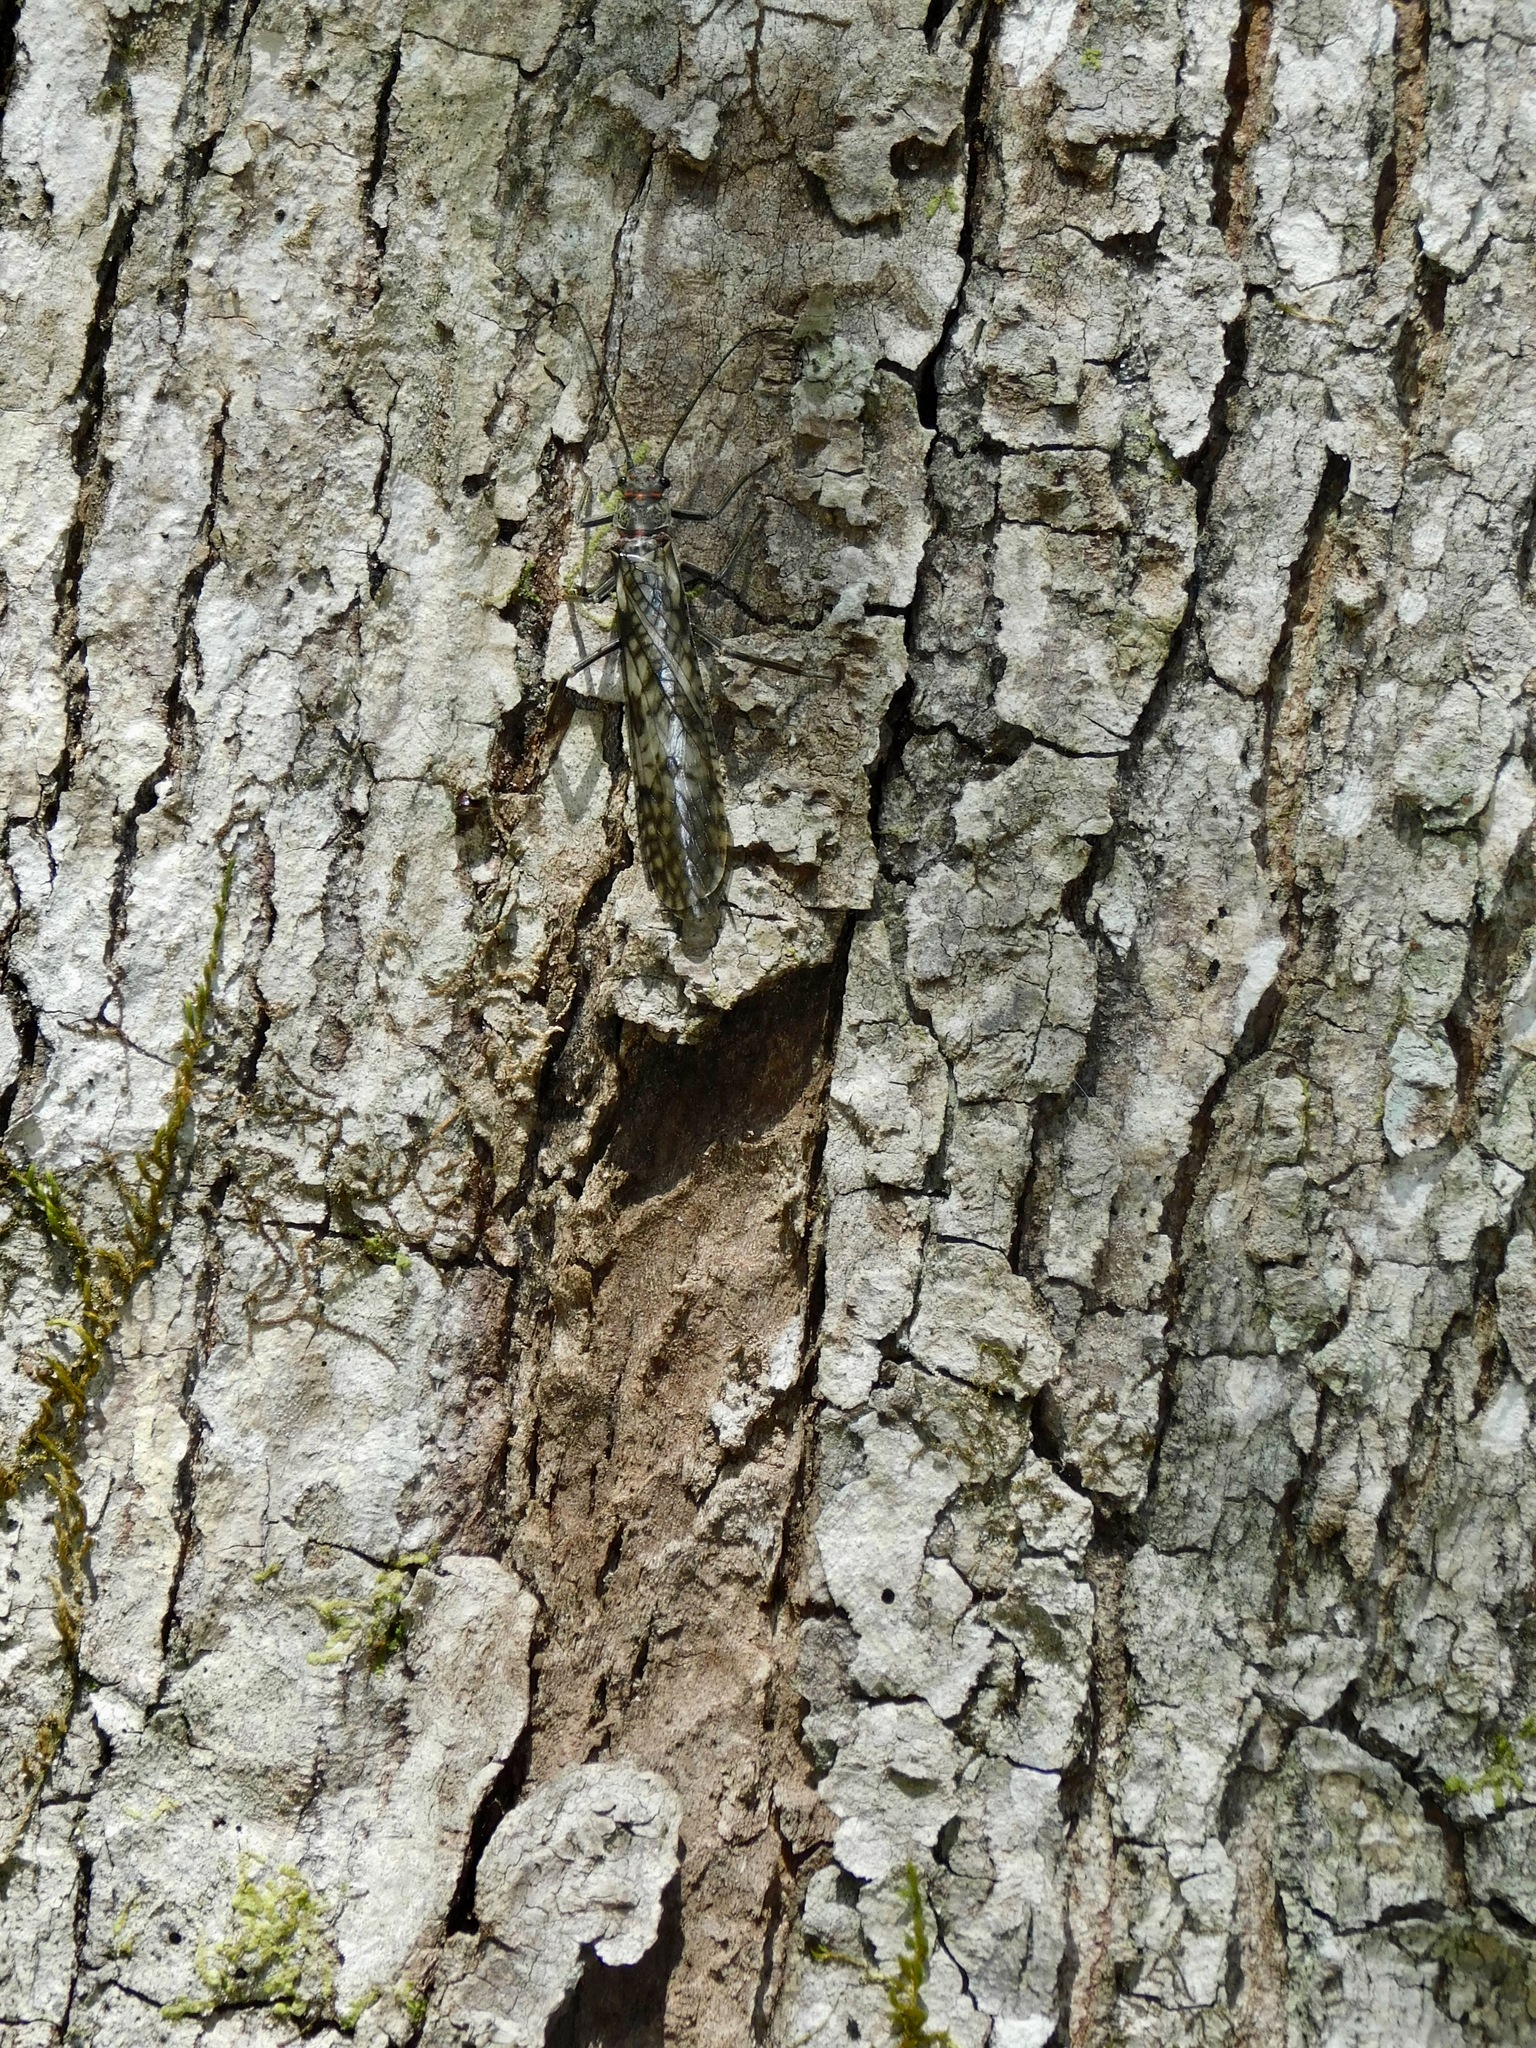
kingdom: Animalia
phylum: Arthropoda
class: Insecta
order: Plecoptera
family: Pteronarcyidae
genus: Pteronarcys
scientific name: Pteronarcys proteus
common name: Appalachian salmonfly
